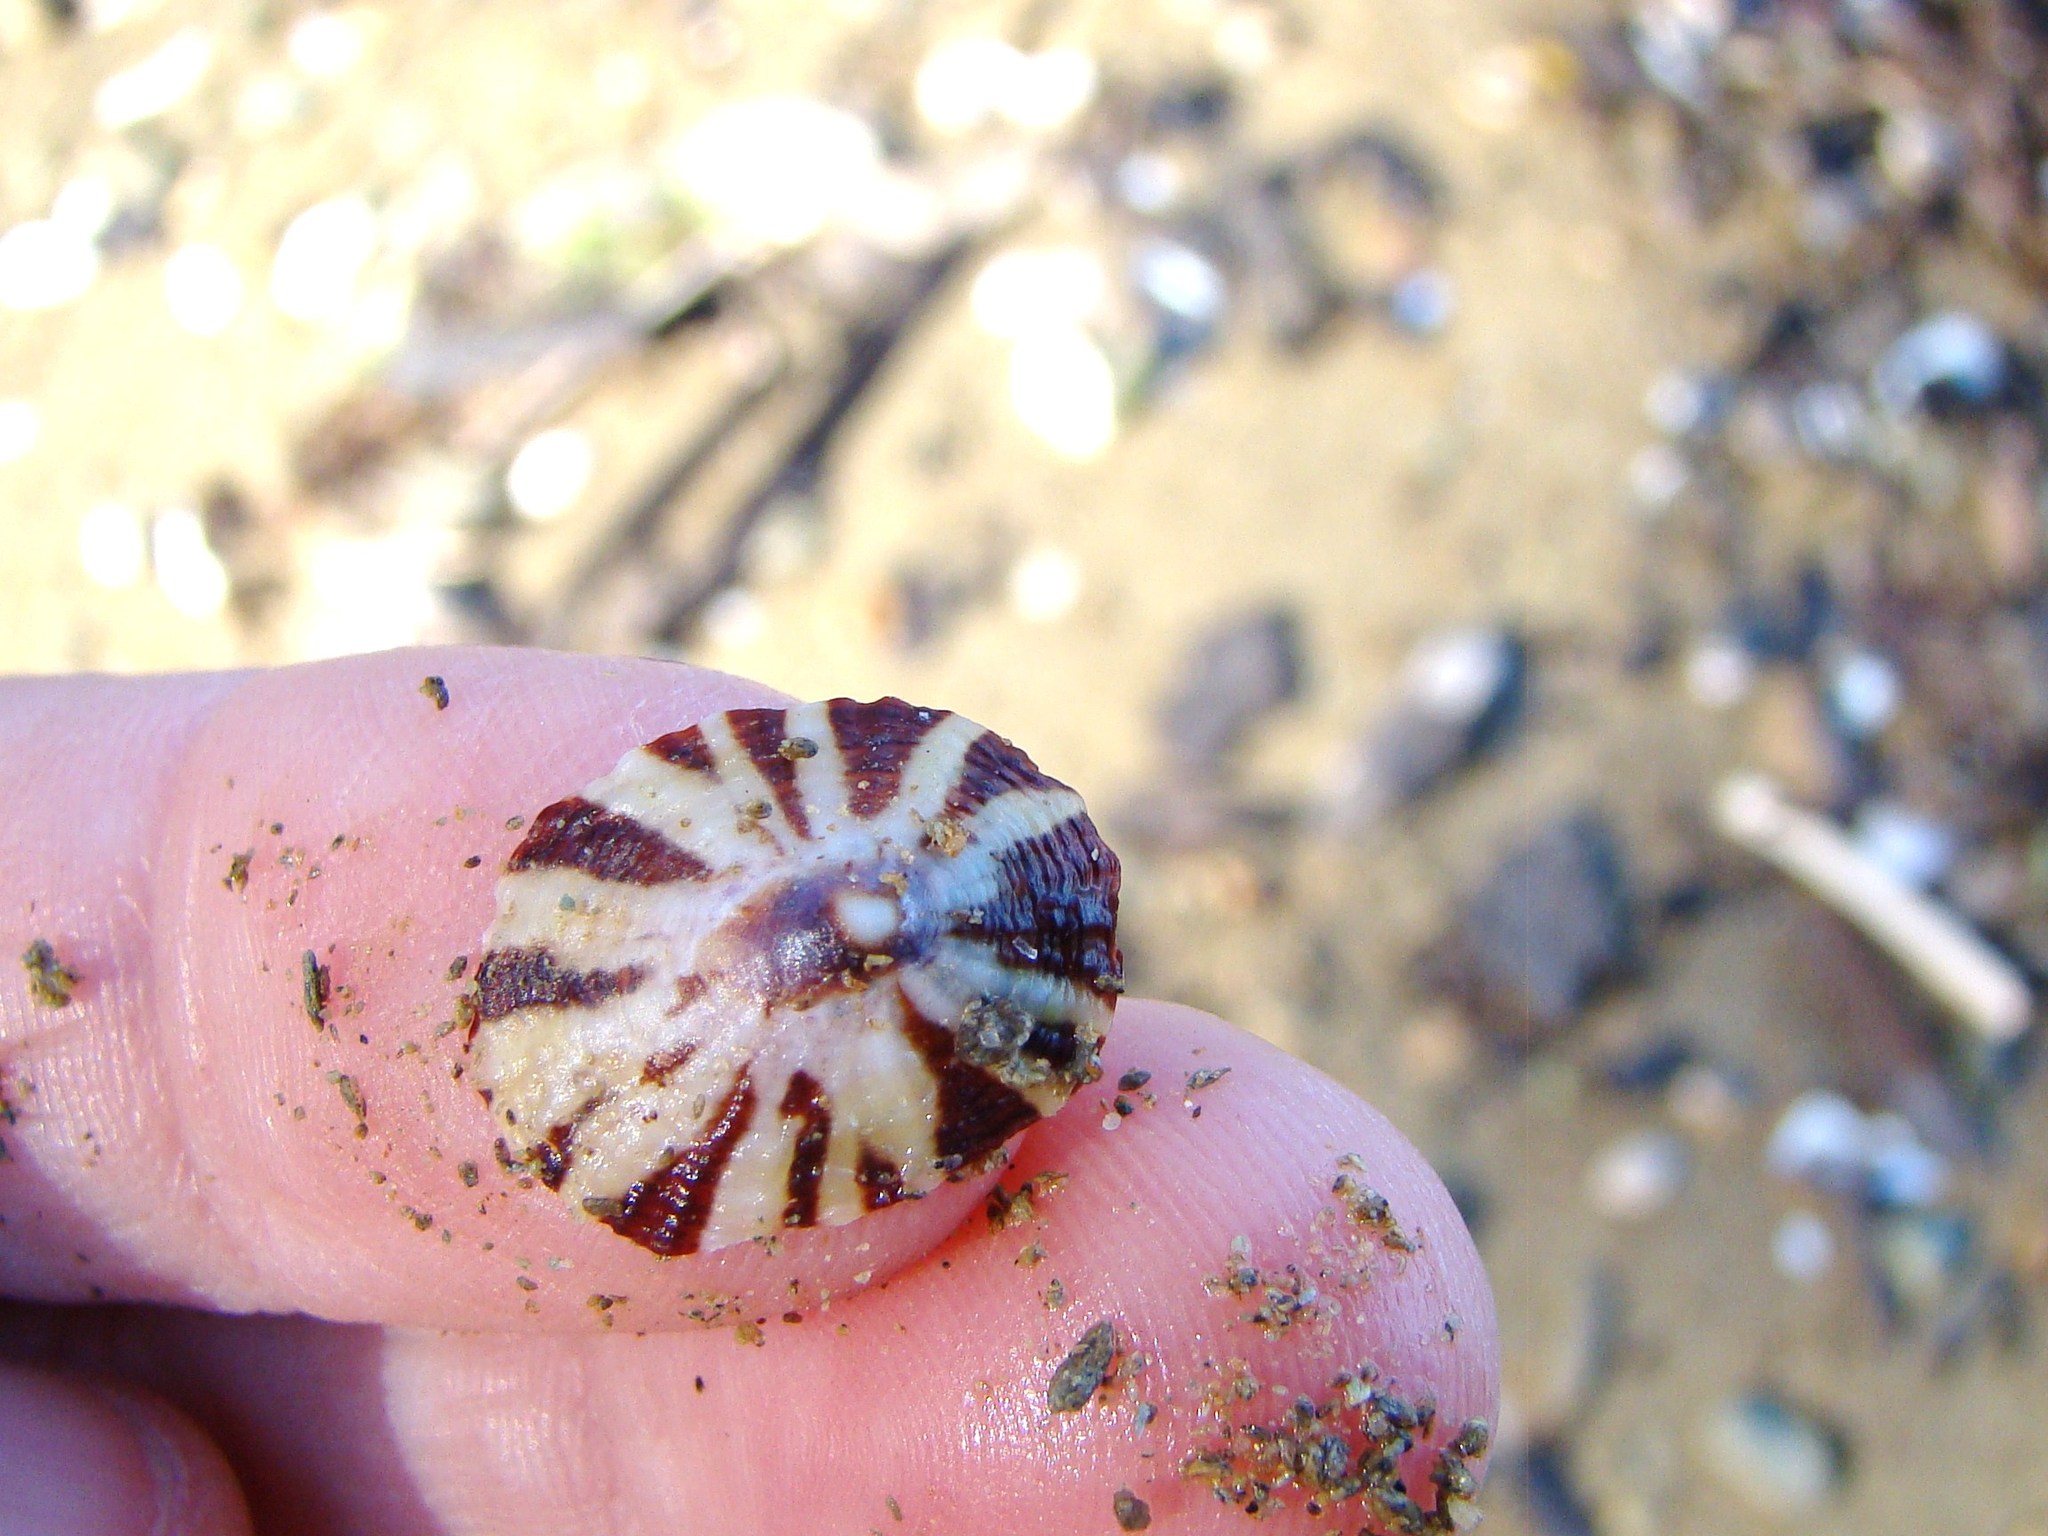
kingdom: Animalia
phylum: Mollusca
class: Gastropoda
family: Nacellidae
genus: Cellana
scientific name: Cellana stellifera
